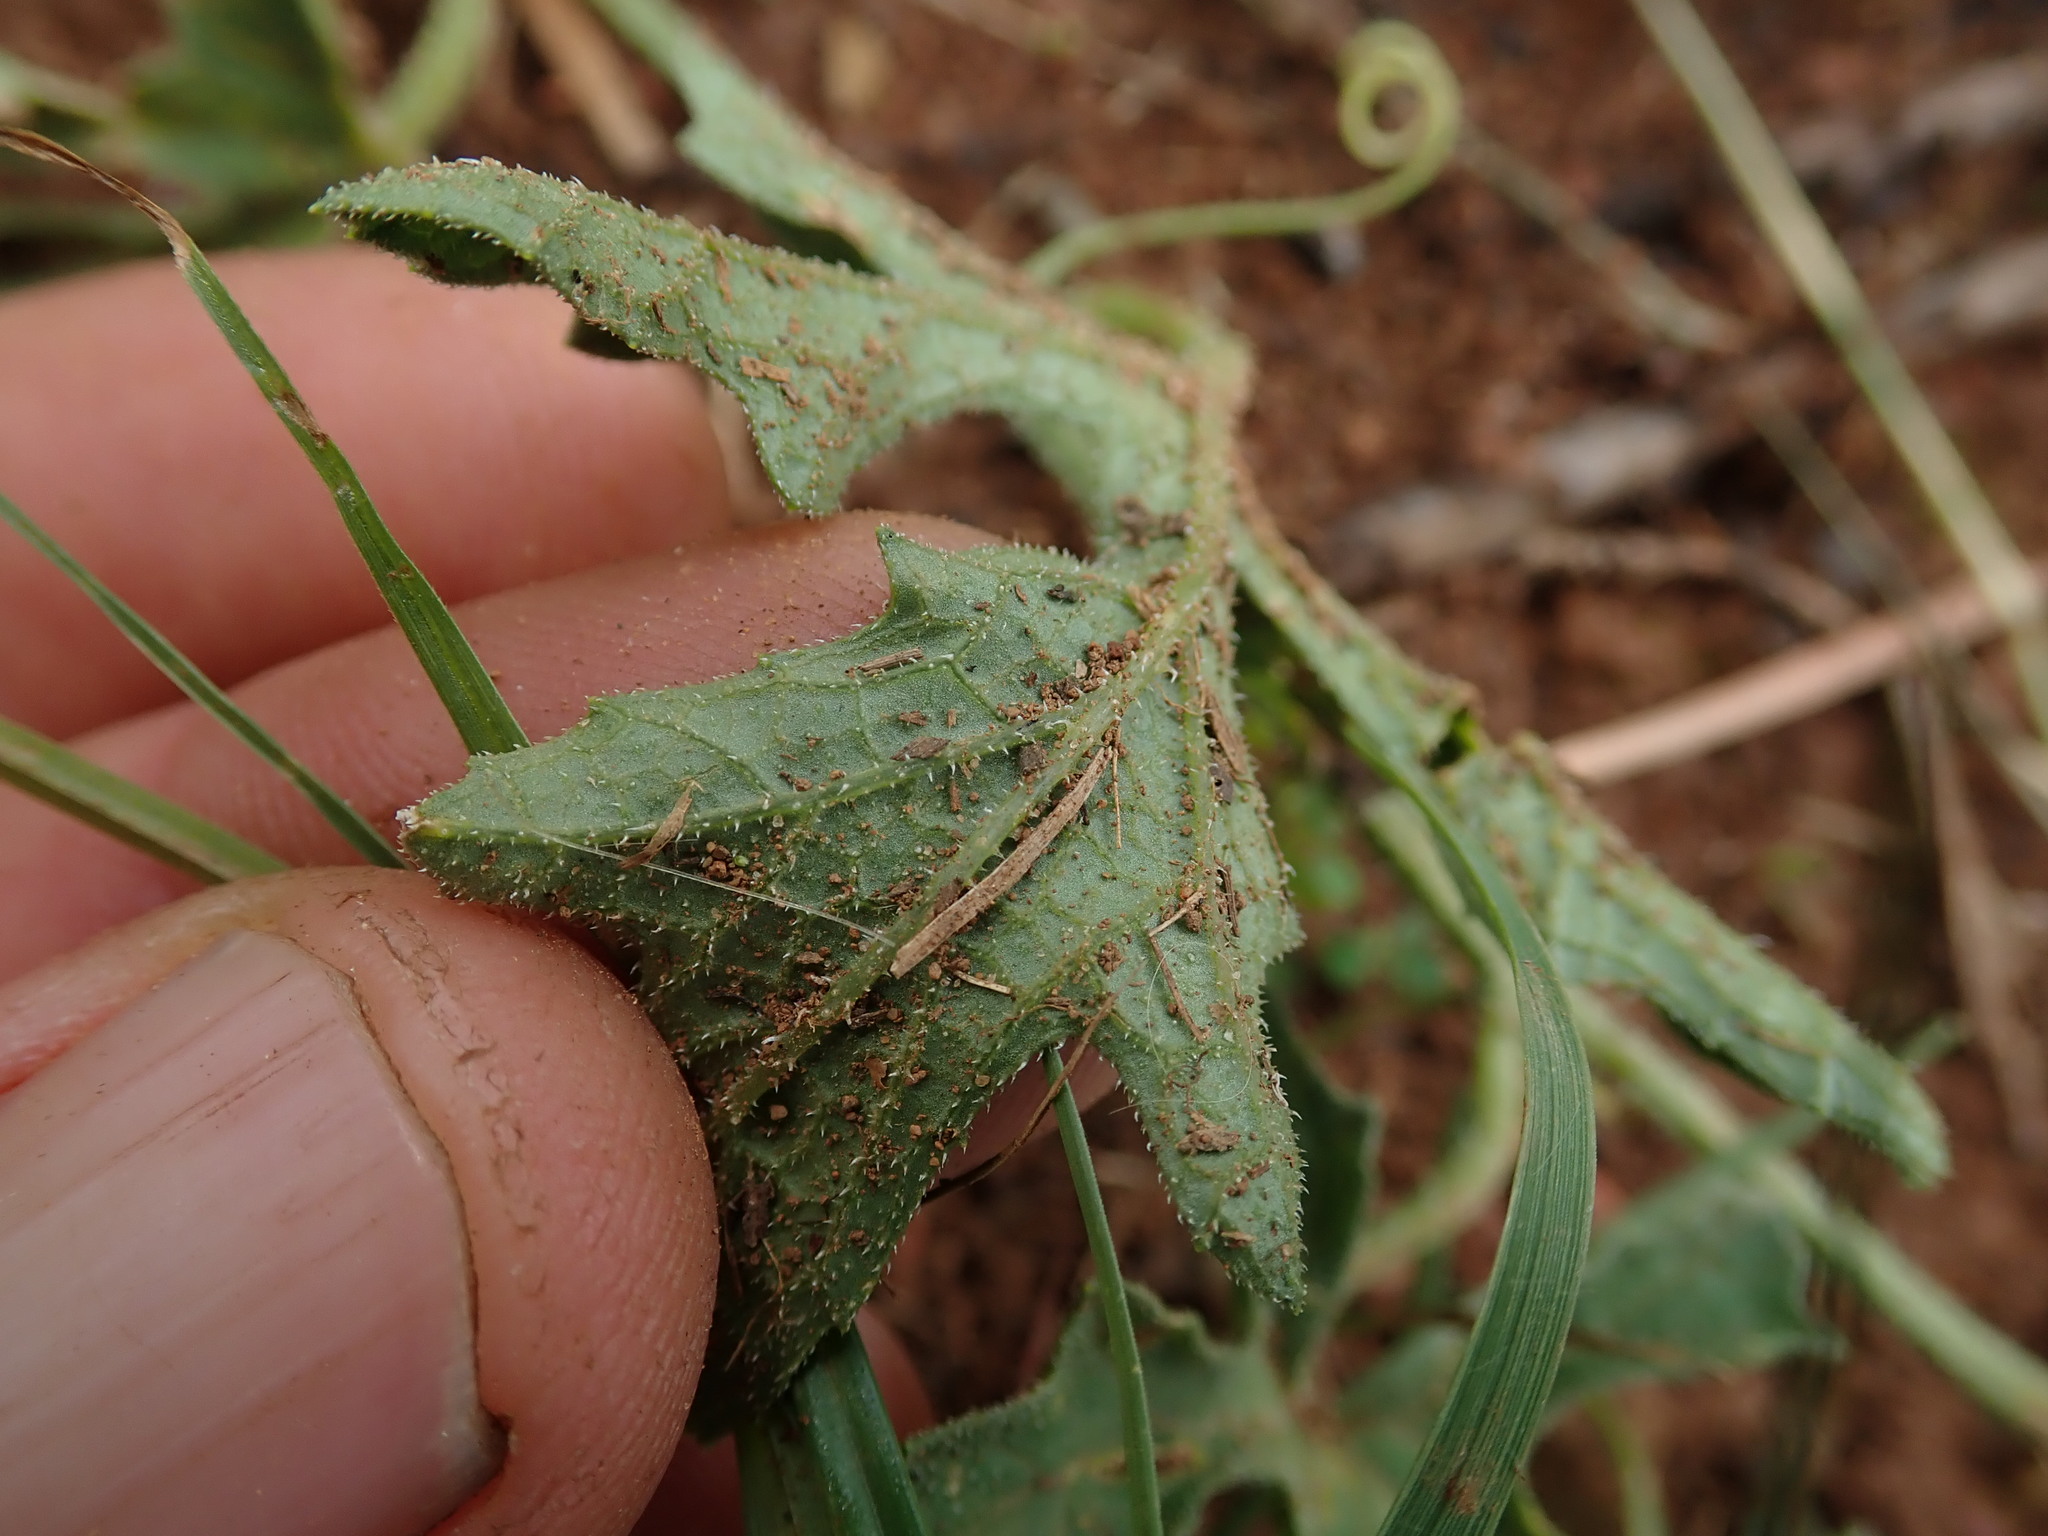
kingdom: Plantae
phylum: Tracheophyta
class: Magnoliopsida
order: Cucurbitales
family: Cucurbitaceae
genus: Cucumis
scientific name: Cucumis zeyheri
